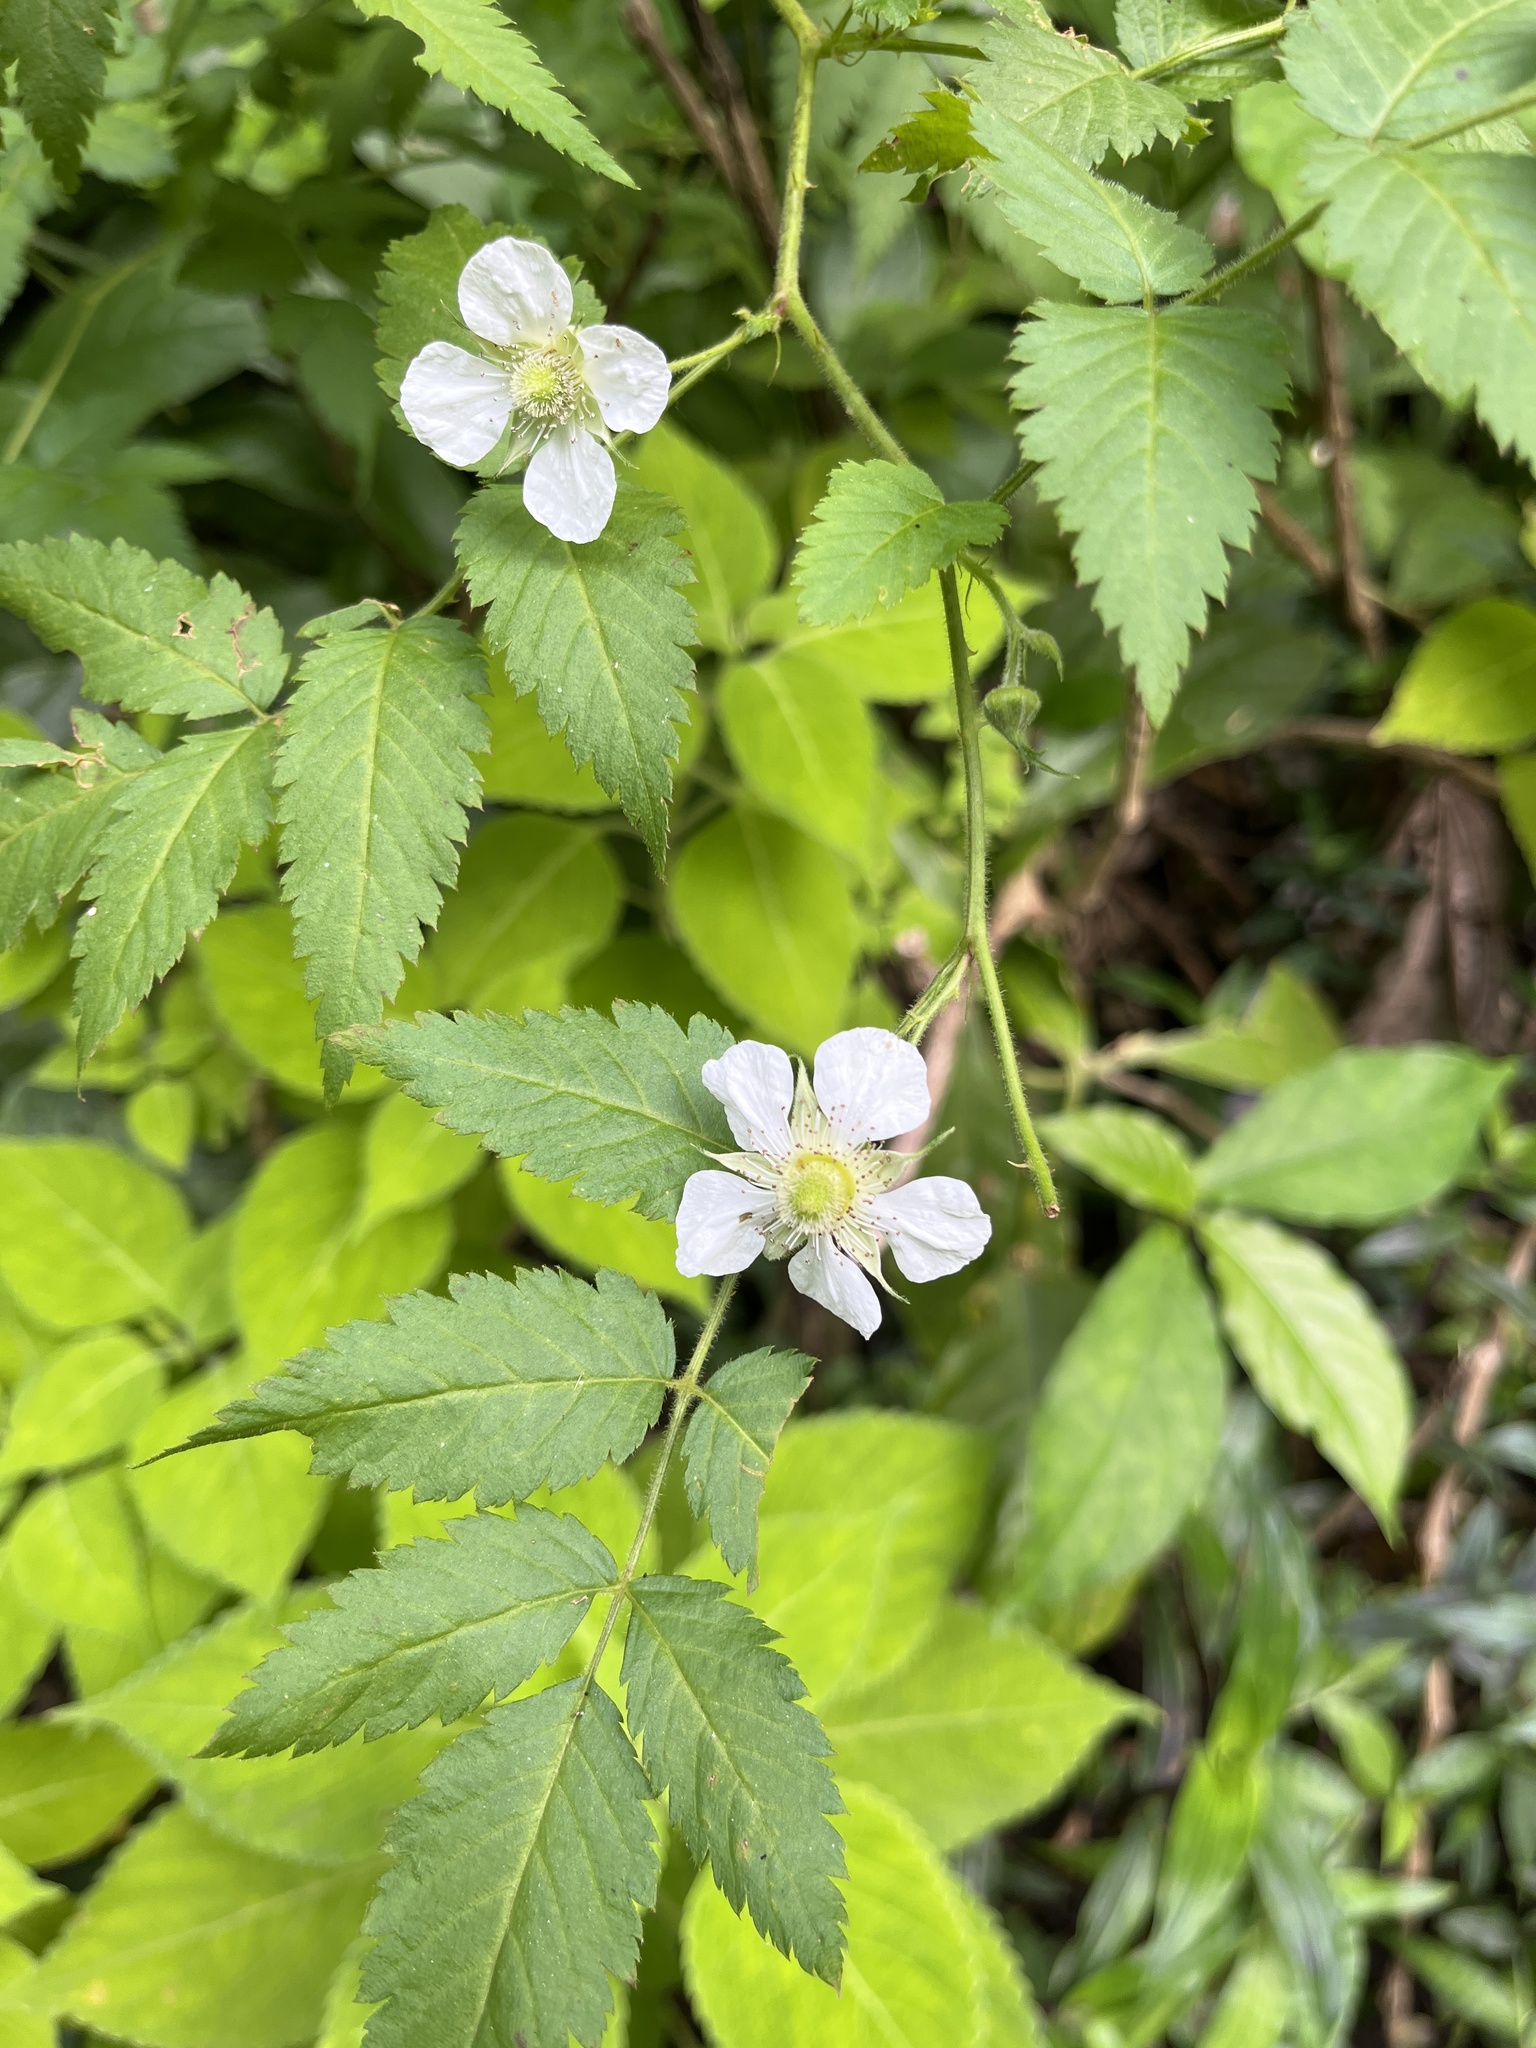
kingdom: Plantae
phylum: Tracheophyta
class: Magnoliopsida
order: Rosales
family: Rosaceae
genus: Rubus
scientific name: Rubus rosifolius
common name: Roseleaf raspberry
